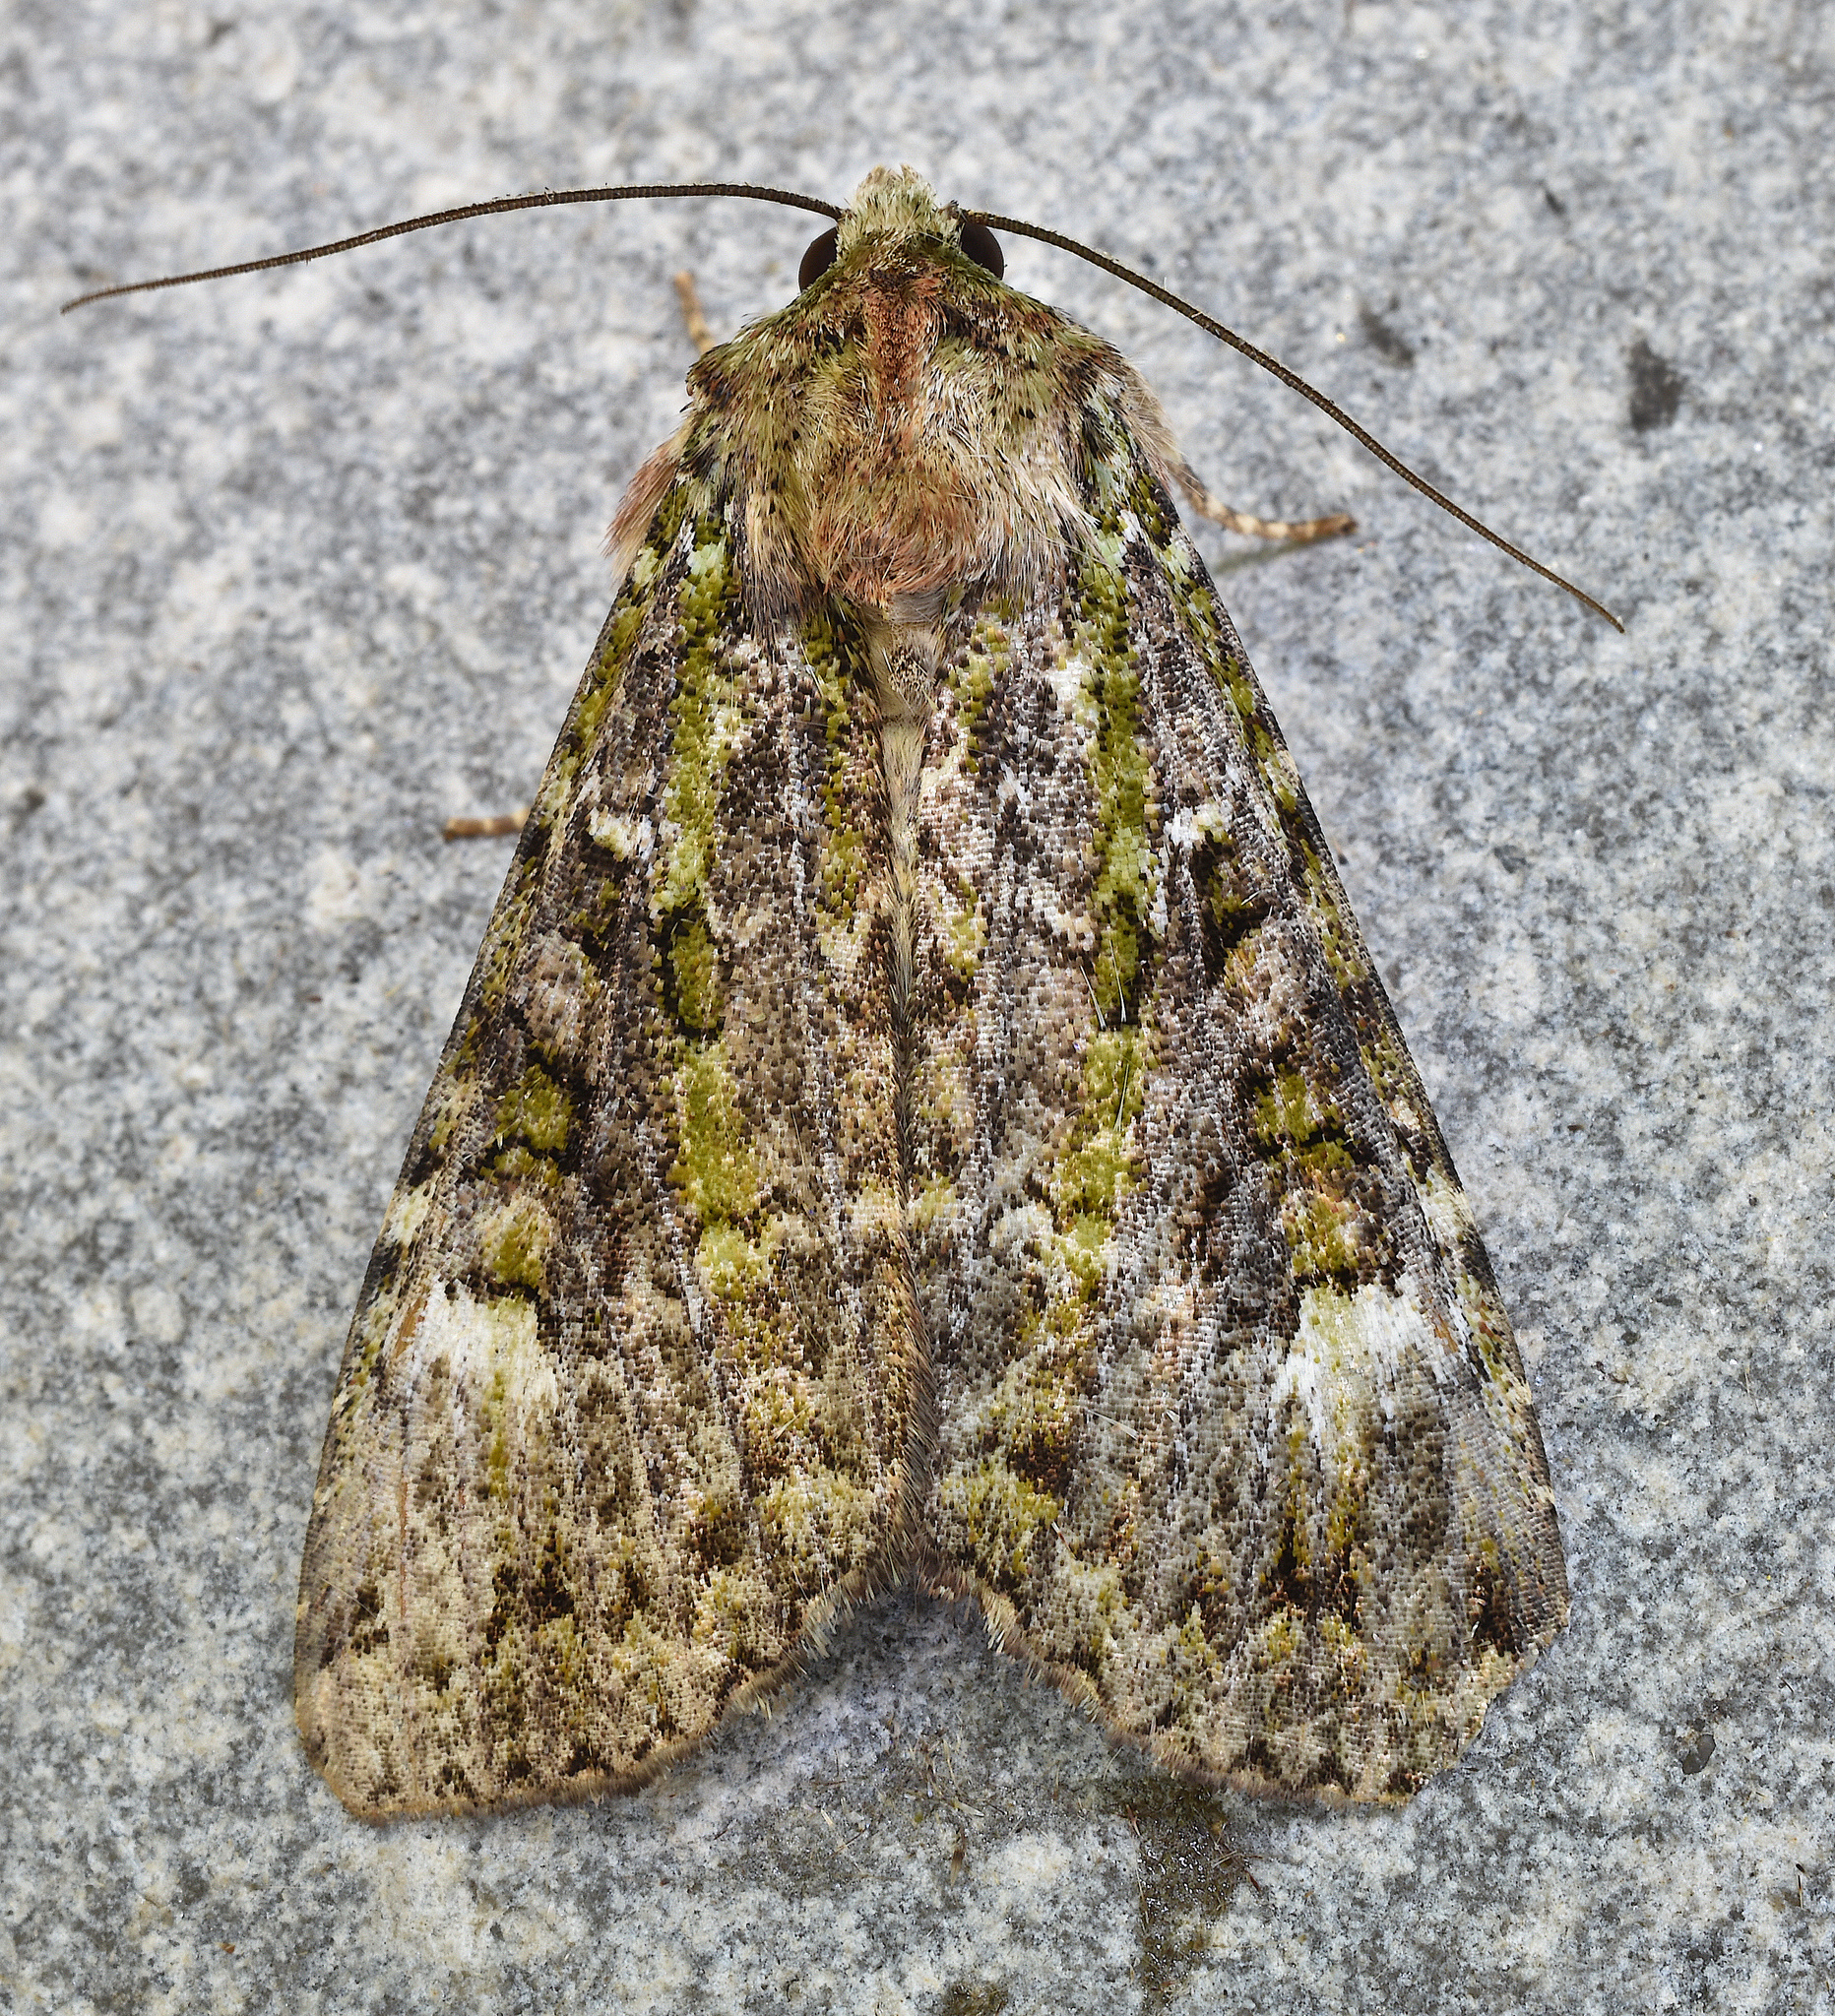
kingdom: Animalia
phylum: Arthropoda
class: Insecta
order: Lepidoptera
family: Noctuidae
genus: Anaplectoides
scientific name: Anaplectoides prasina
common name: Green arches
